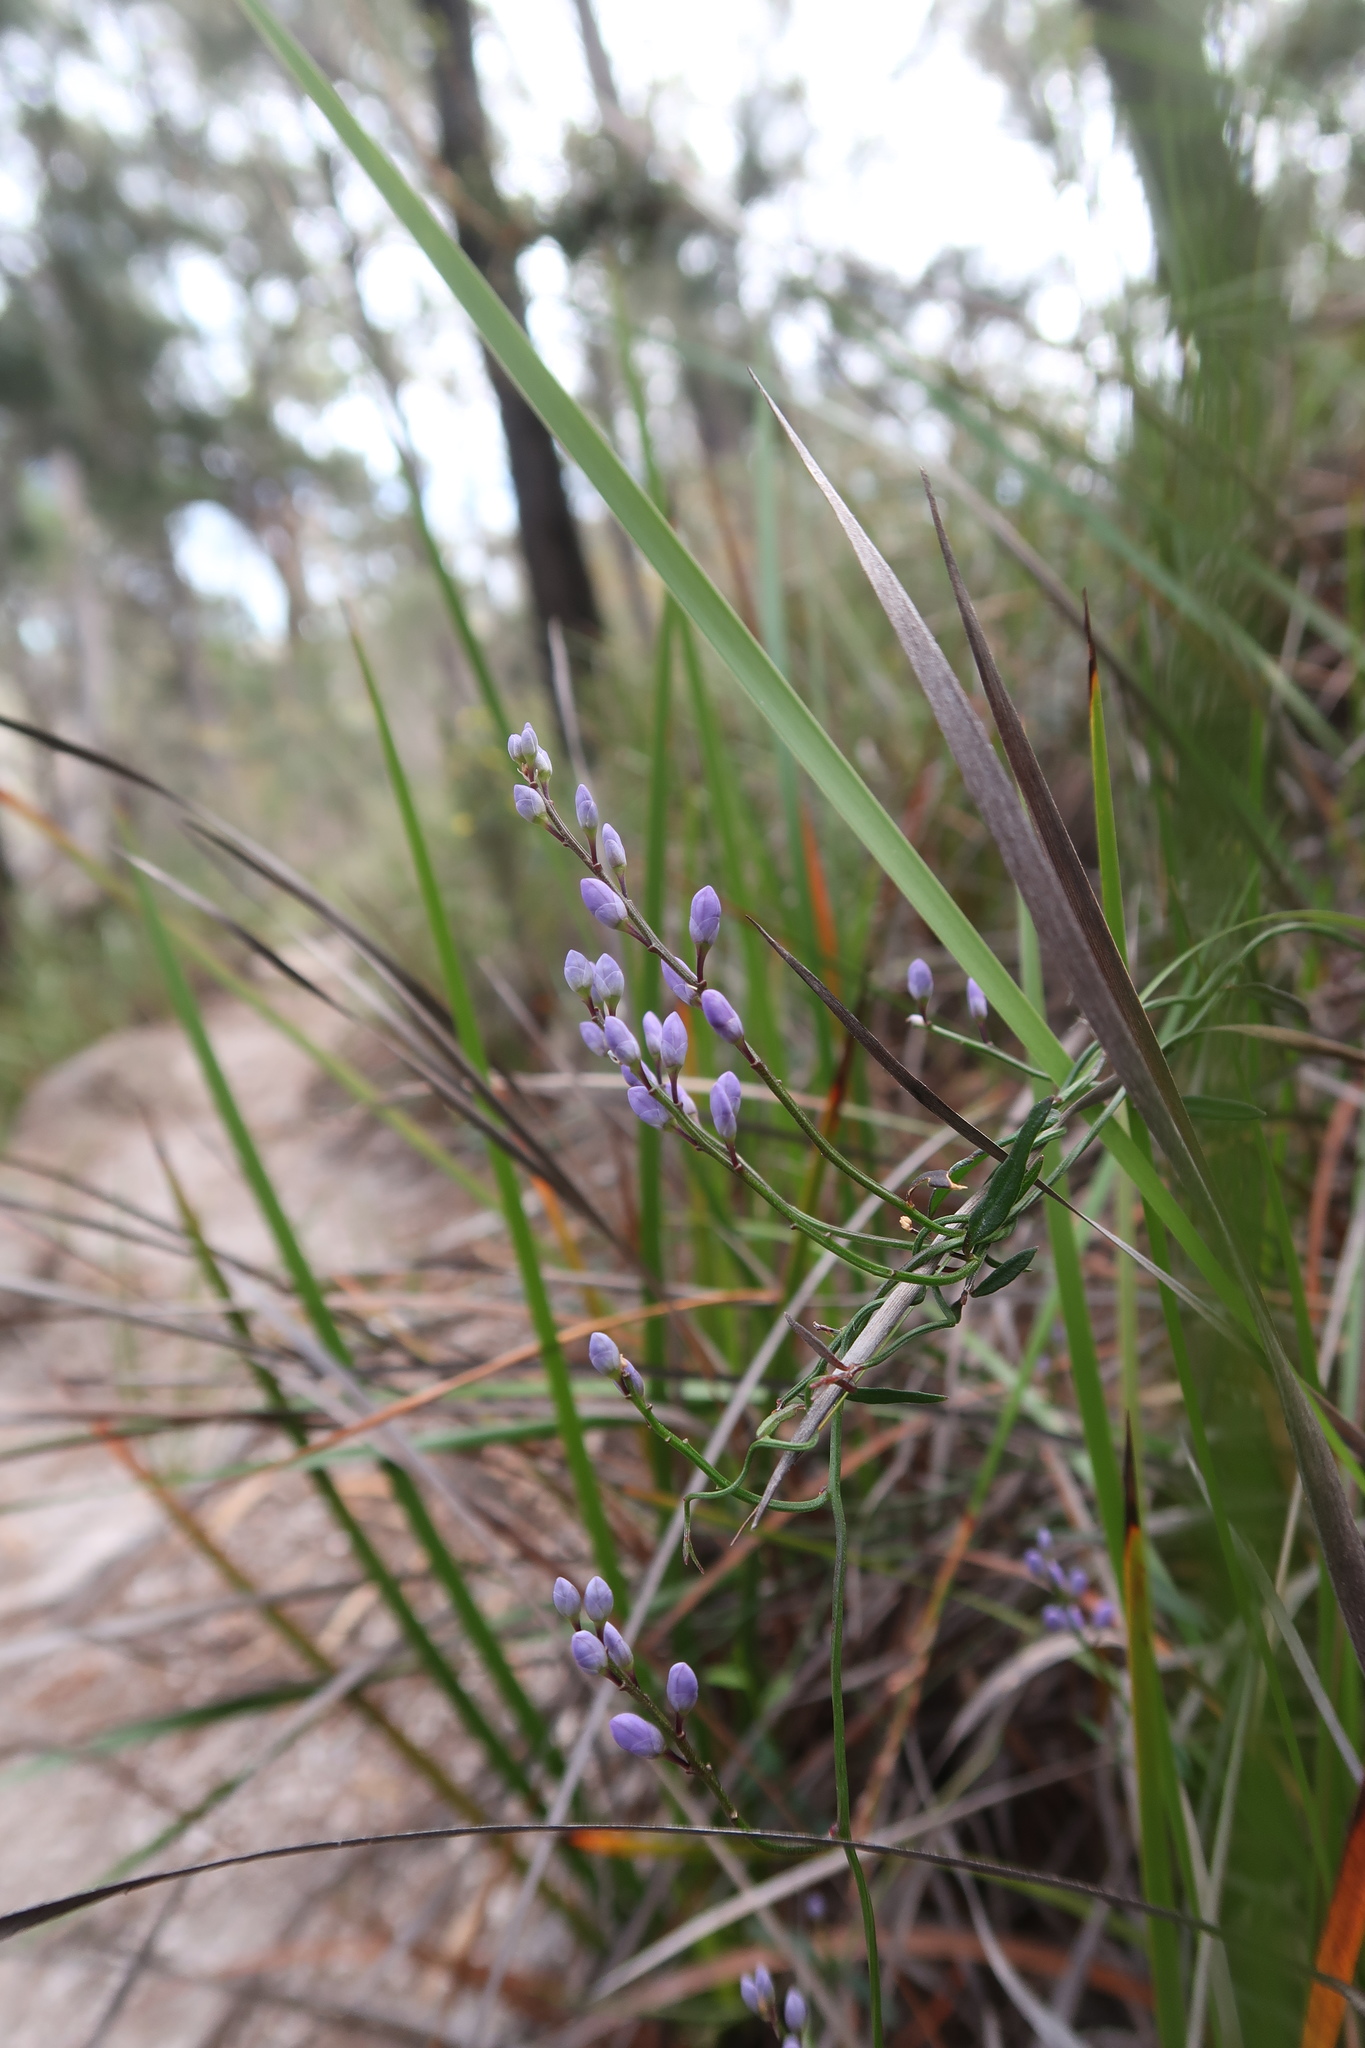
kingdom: Plantae
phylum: Tracheophyta
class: Magnoliopsida
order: Fabales
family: Polygalaceae
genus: Comesperma
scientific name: Comesperma volubile
